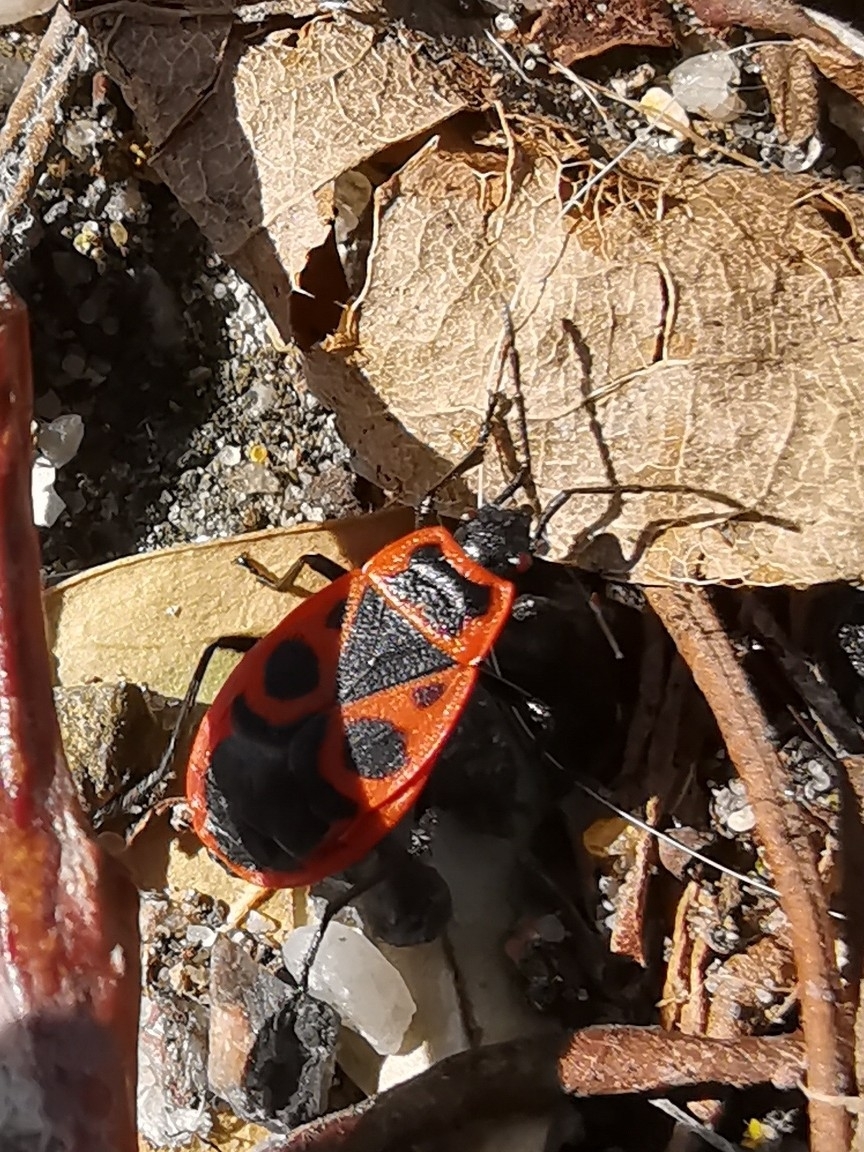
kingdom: Animalia
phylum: Arthropoda
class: Insecta
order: Hemiptera
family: Pyrrhocoridae
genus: Pyrrhocoris
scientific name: Pyrrhocoris apterus
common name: Firebug
